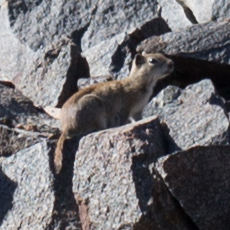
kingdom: Animalia
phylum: Chordata
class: Mammalia
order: Rodentia
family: Sciuridae
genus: Urocitellus
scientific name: Urocitellus beldingi
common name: Belding's ground squirrel
